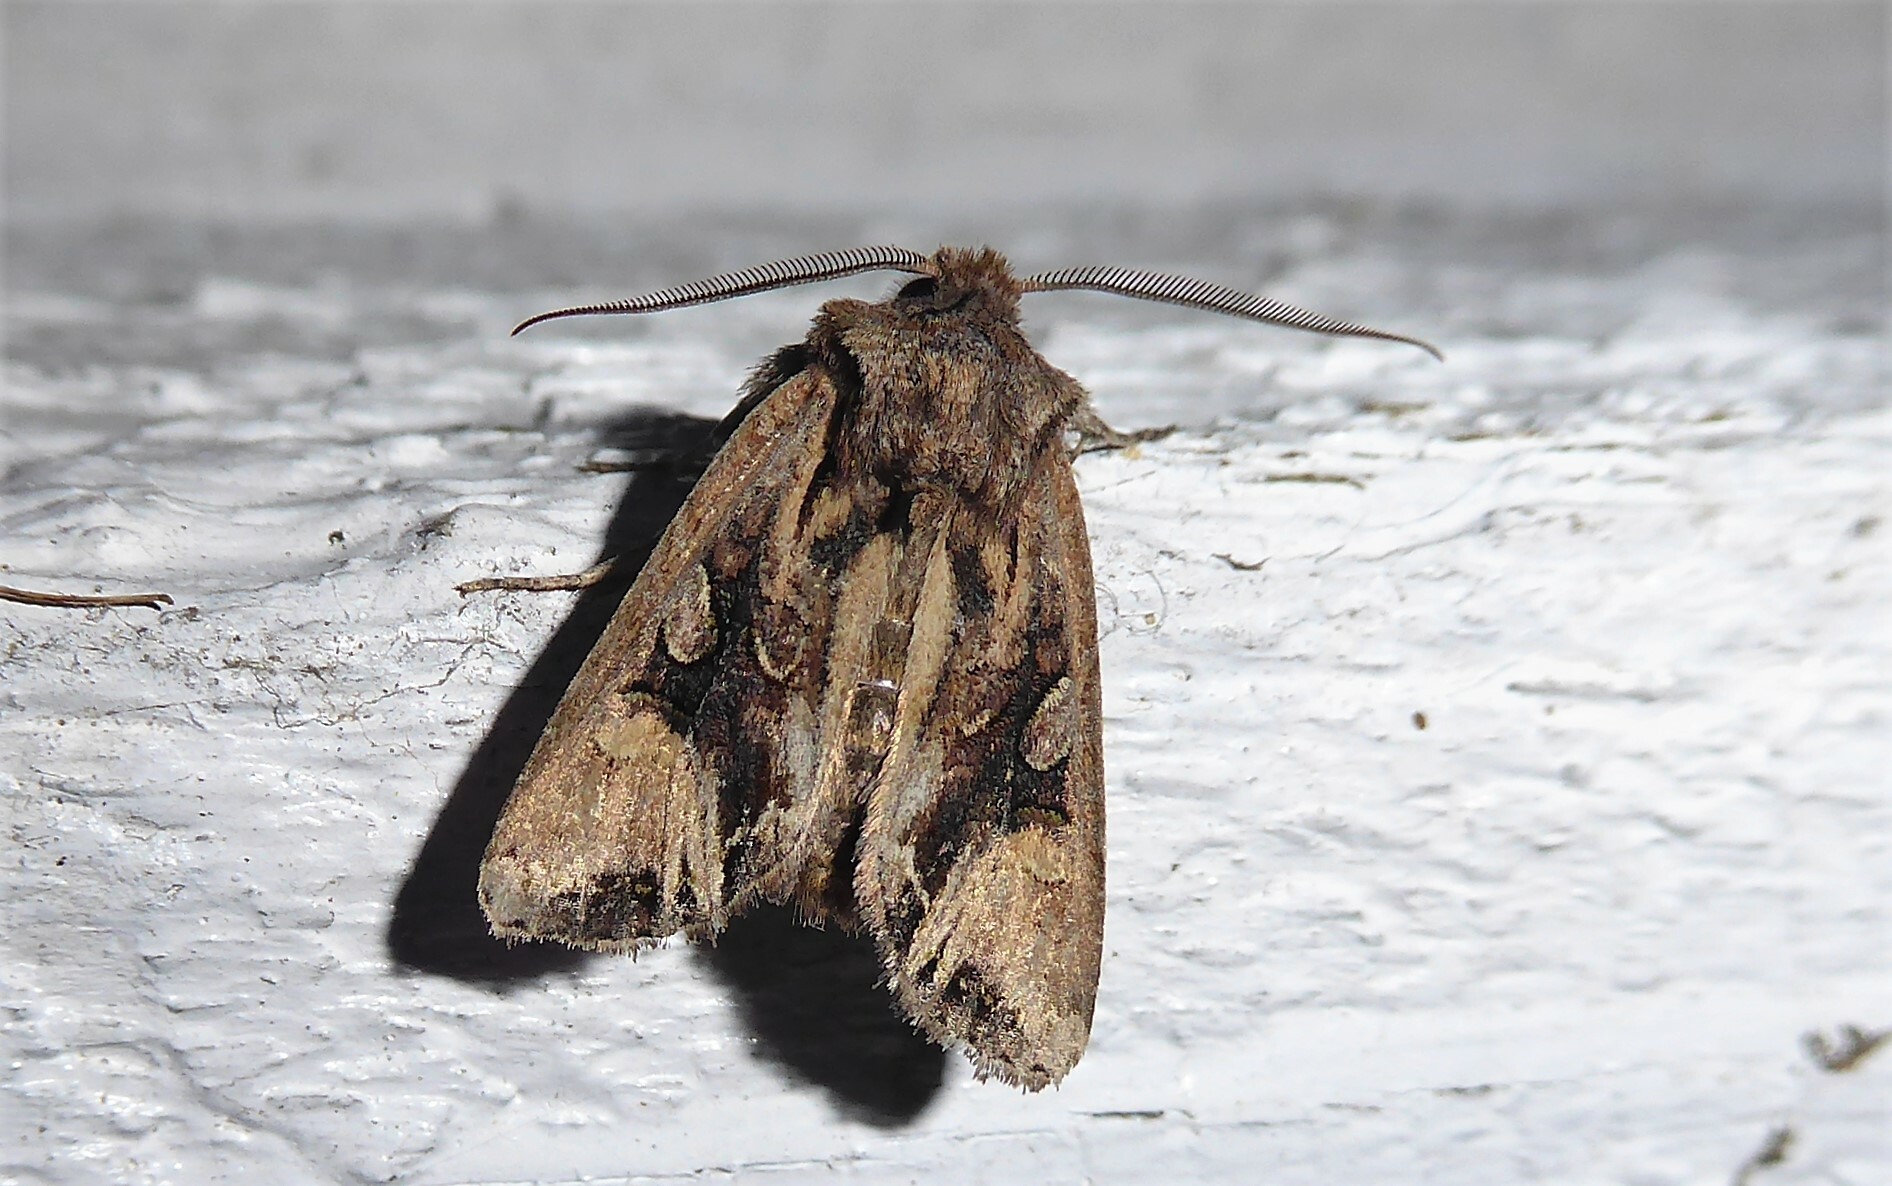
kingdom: Animalia
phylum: Arthropoda
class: Insecta
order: Lepidoptera
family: Noctuidae
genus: Ichneutica
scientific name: Ichneutica
